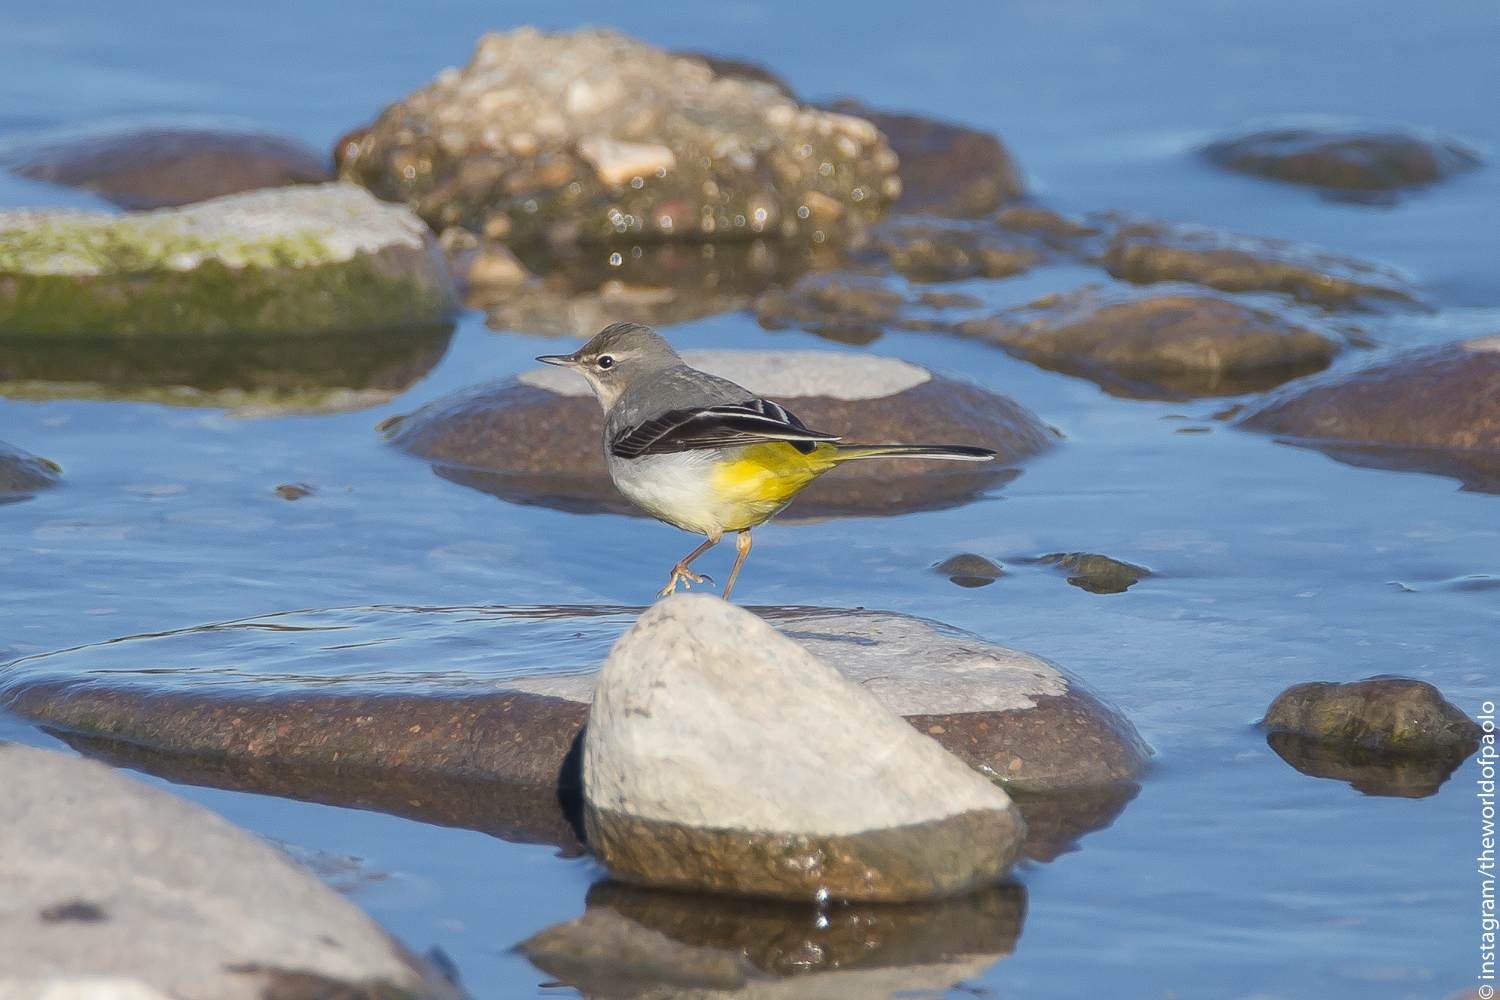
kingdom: Animalia
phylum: Chordata
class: Aves
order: Passeriformes
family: Motacillidae
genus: Motacilla
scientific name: Motacilla cinerea
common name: Grey wagtail
